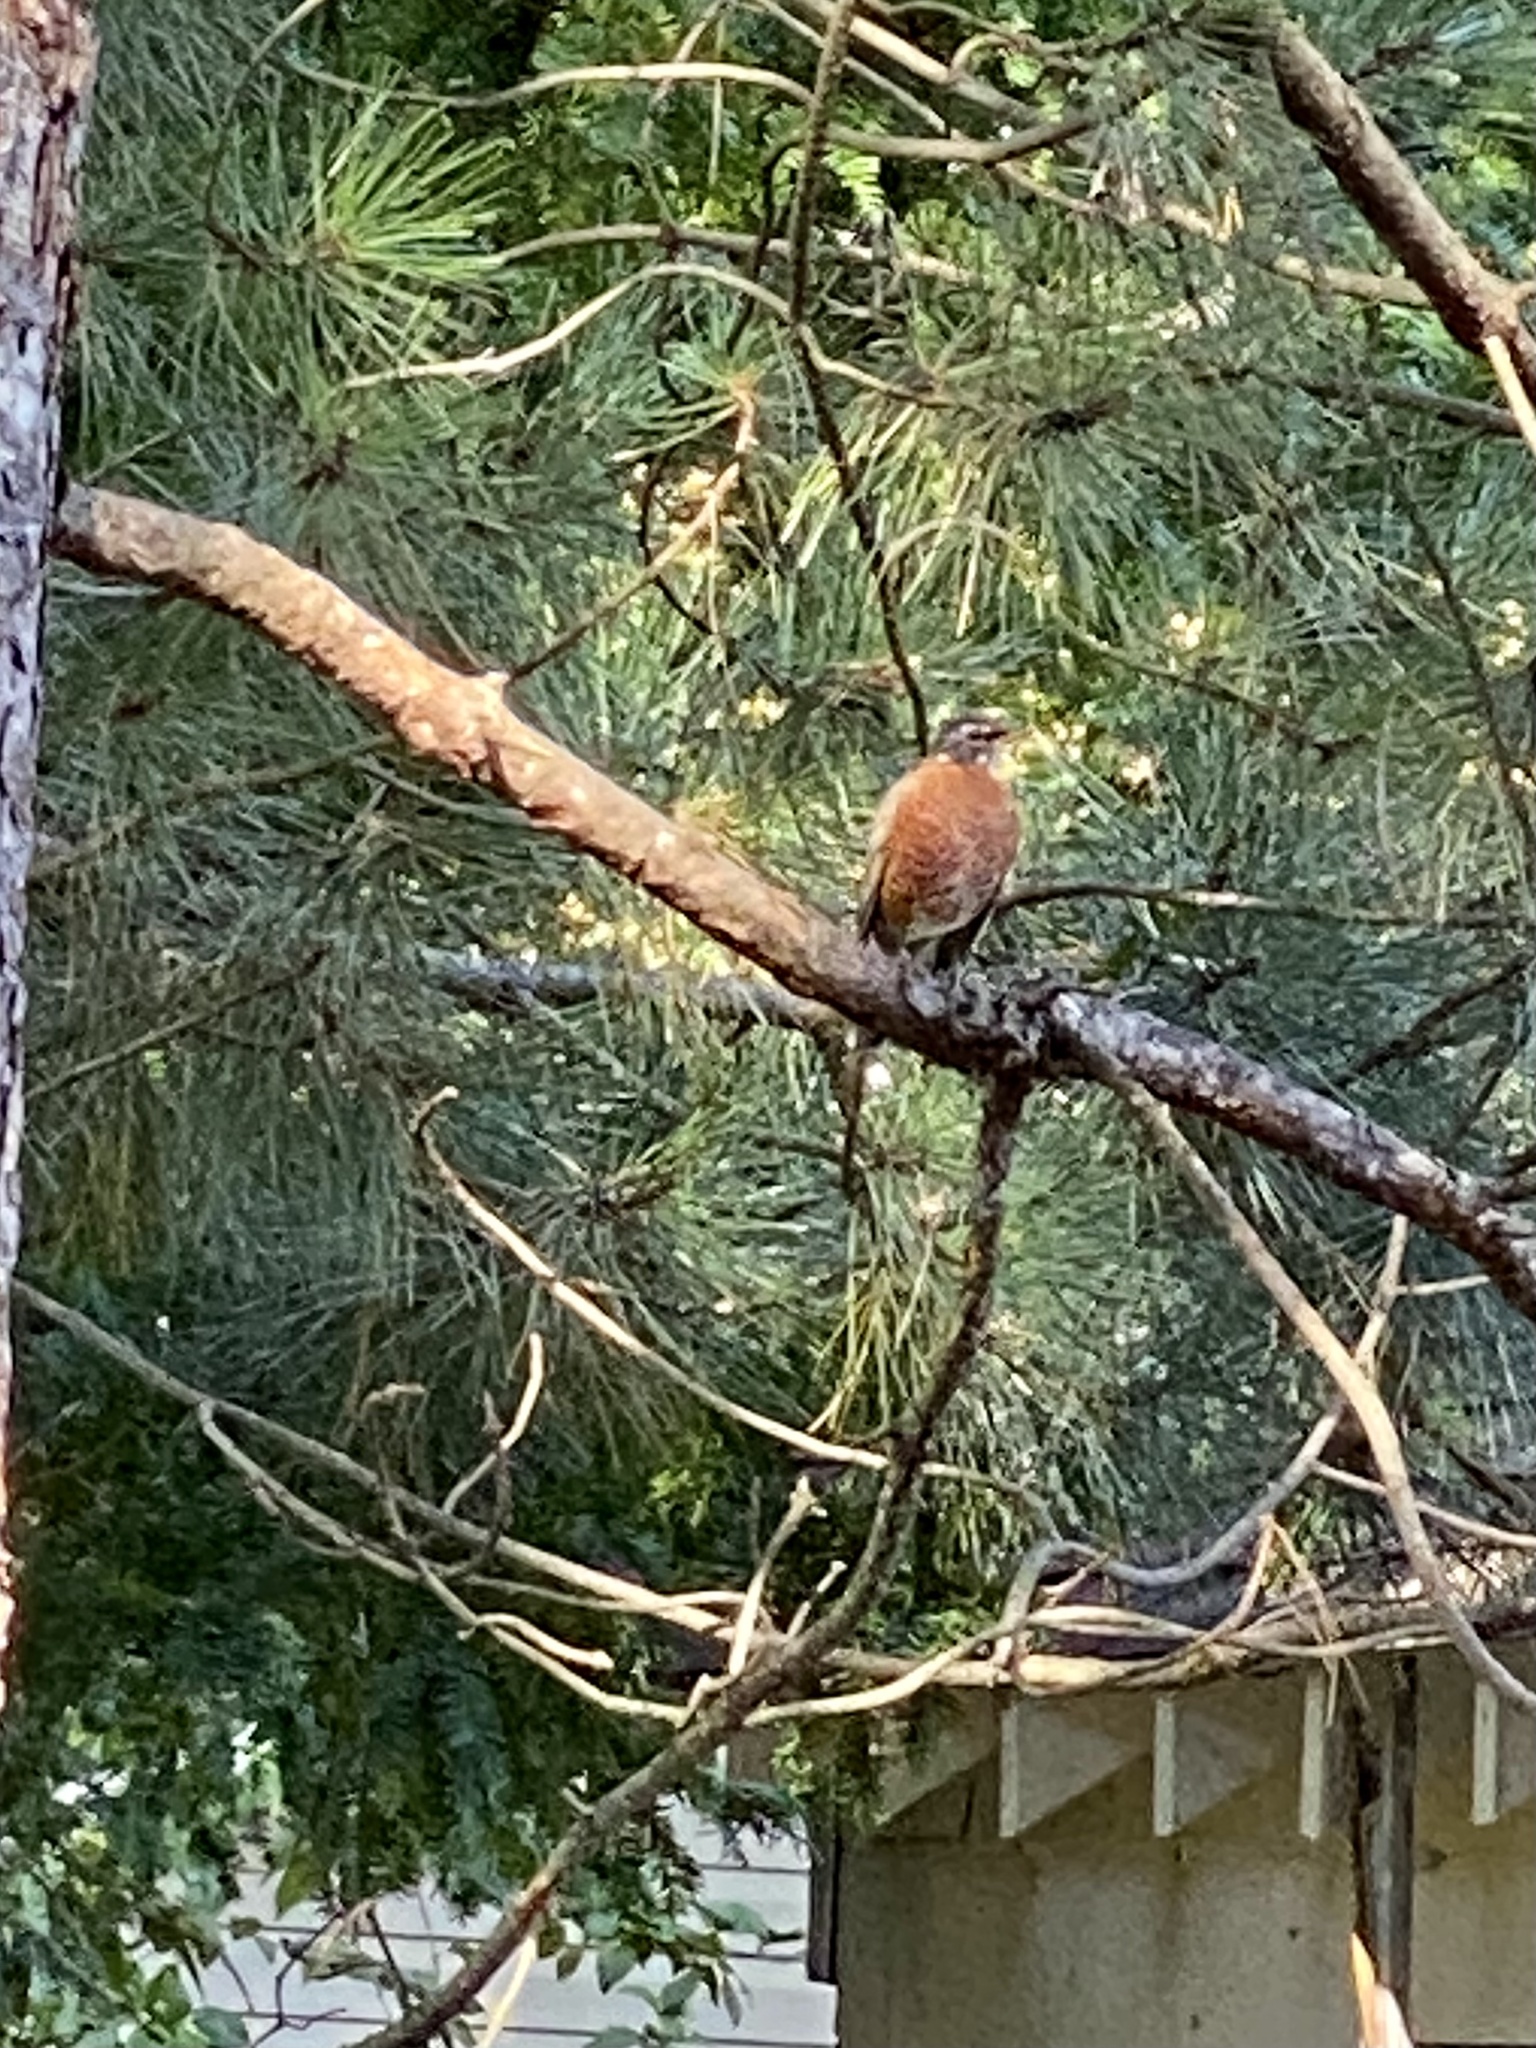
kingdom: Animalia
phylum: Chordata
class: Aves
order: Passeriformes
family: Turdidae
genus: Turdus
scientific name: Turdus migratorius
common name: American robin
